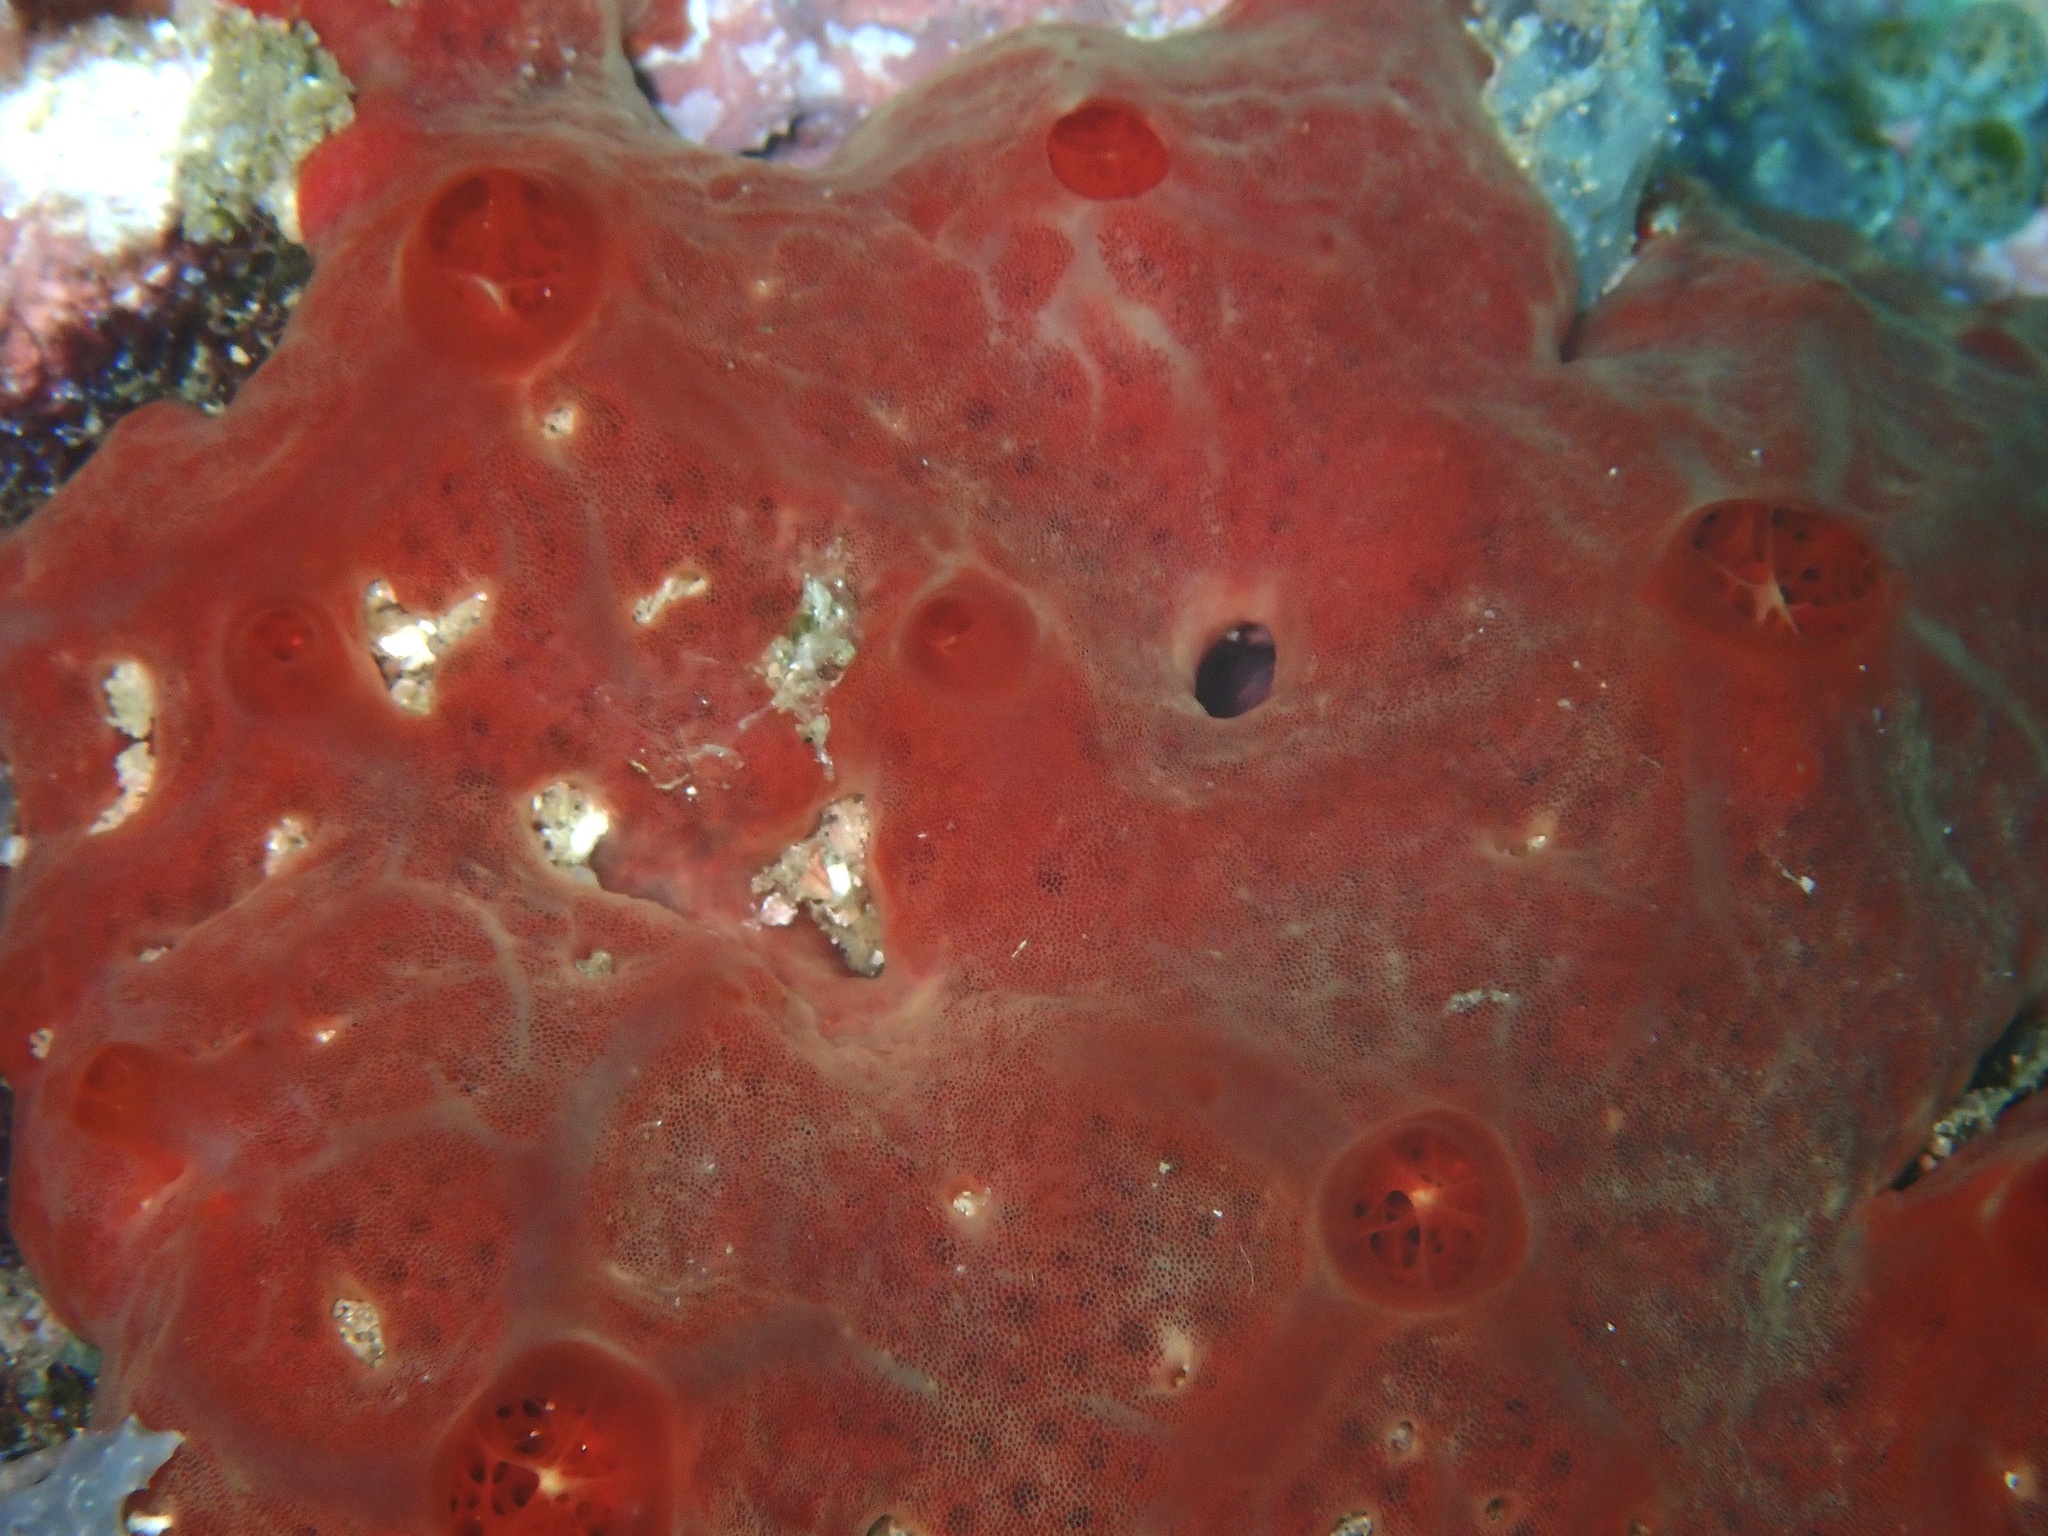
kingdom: Animalia
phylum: Porifera
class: Demospongiae
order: Poecilosclerida
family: Crambeidae
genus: Monanchora
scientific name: Monanchora clathrata
